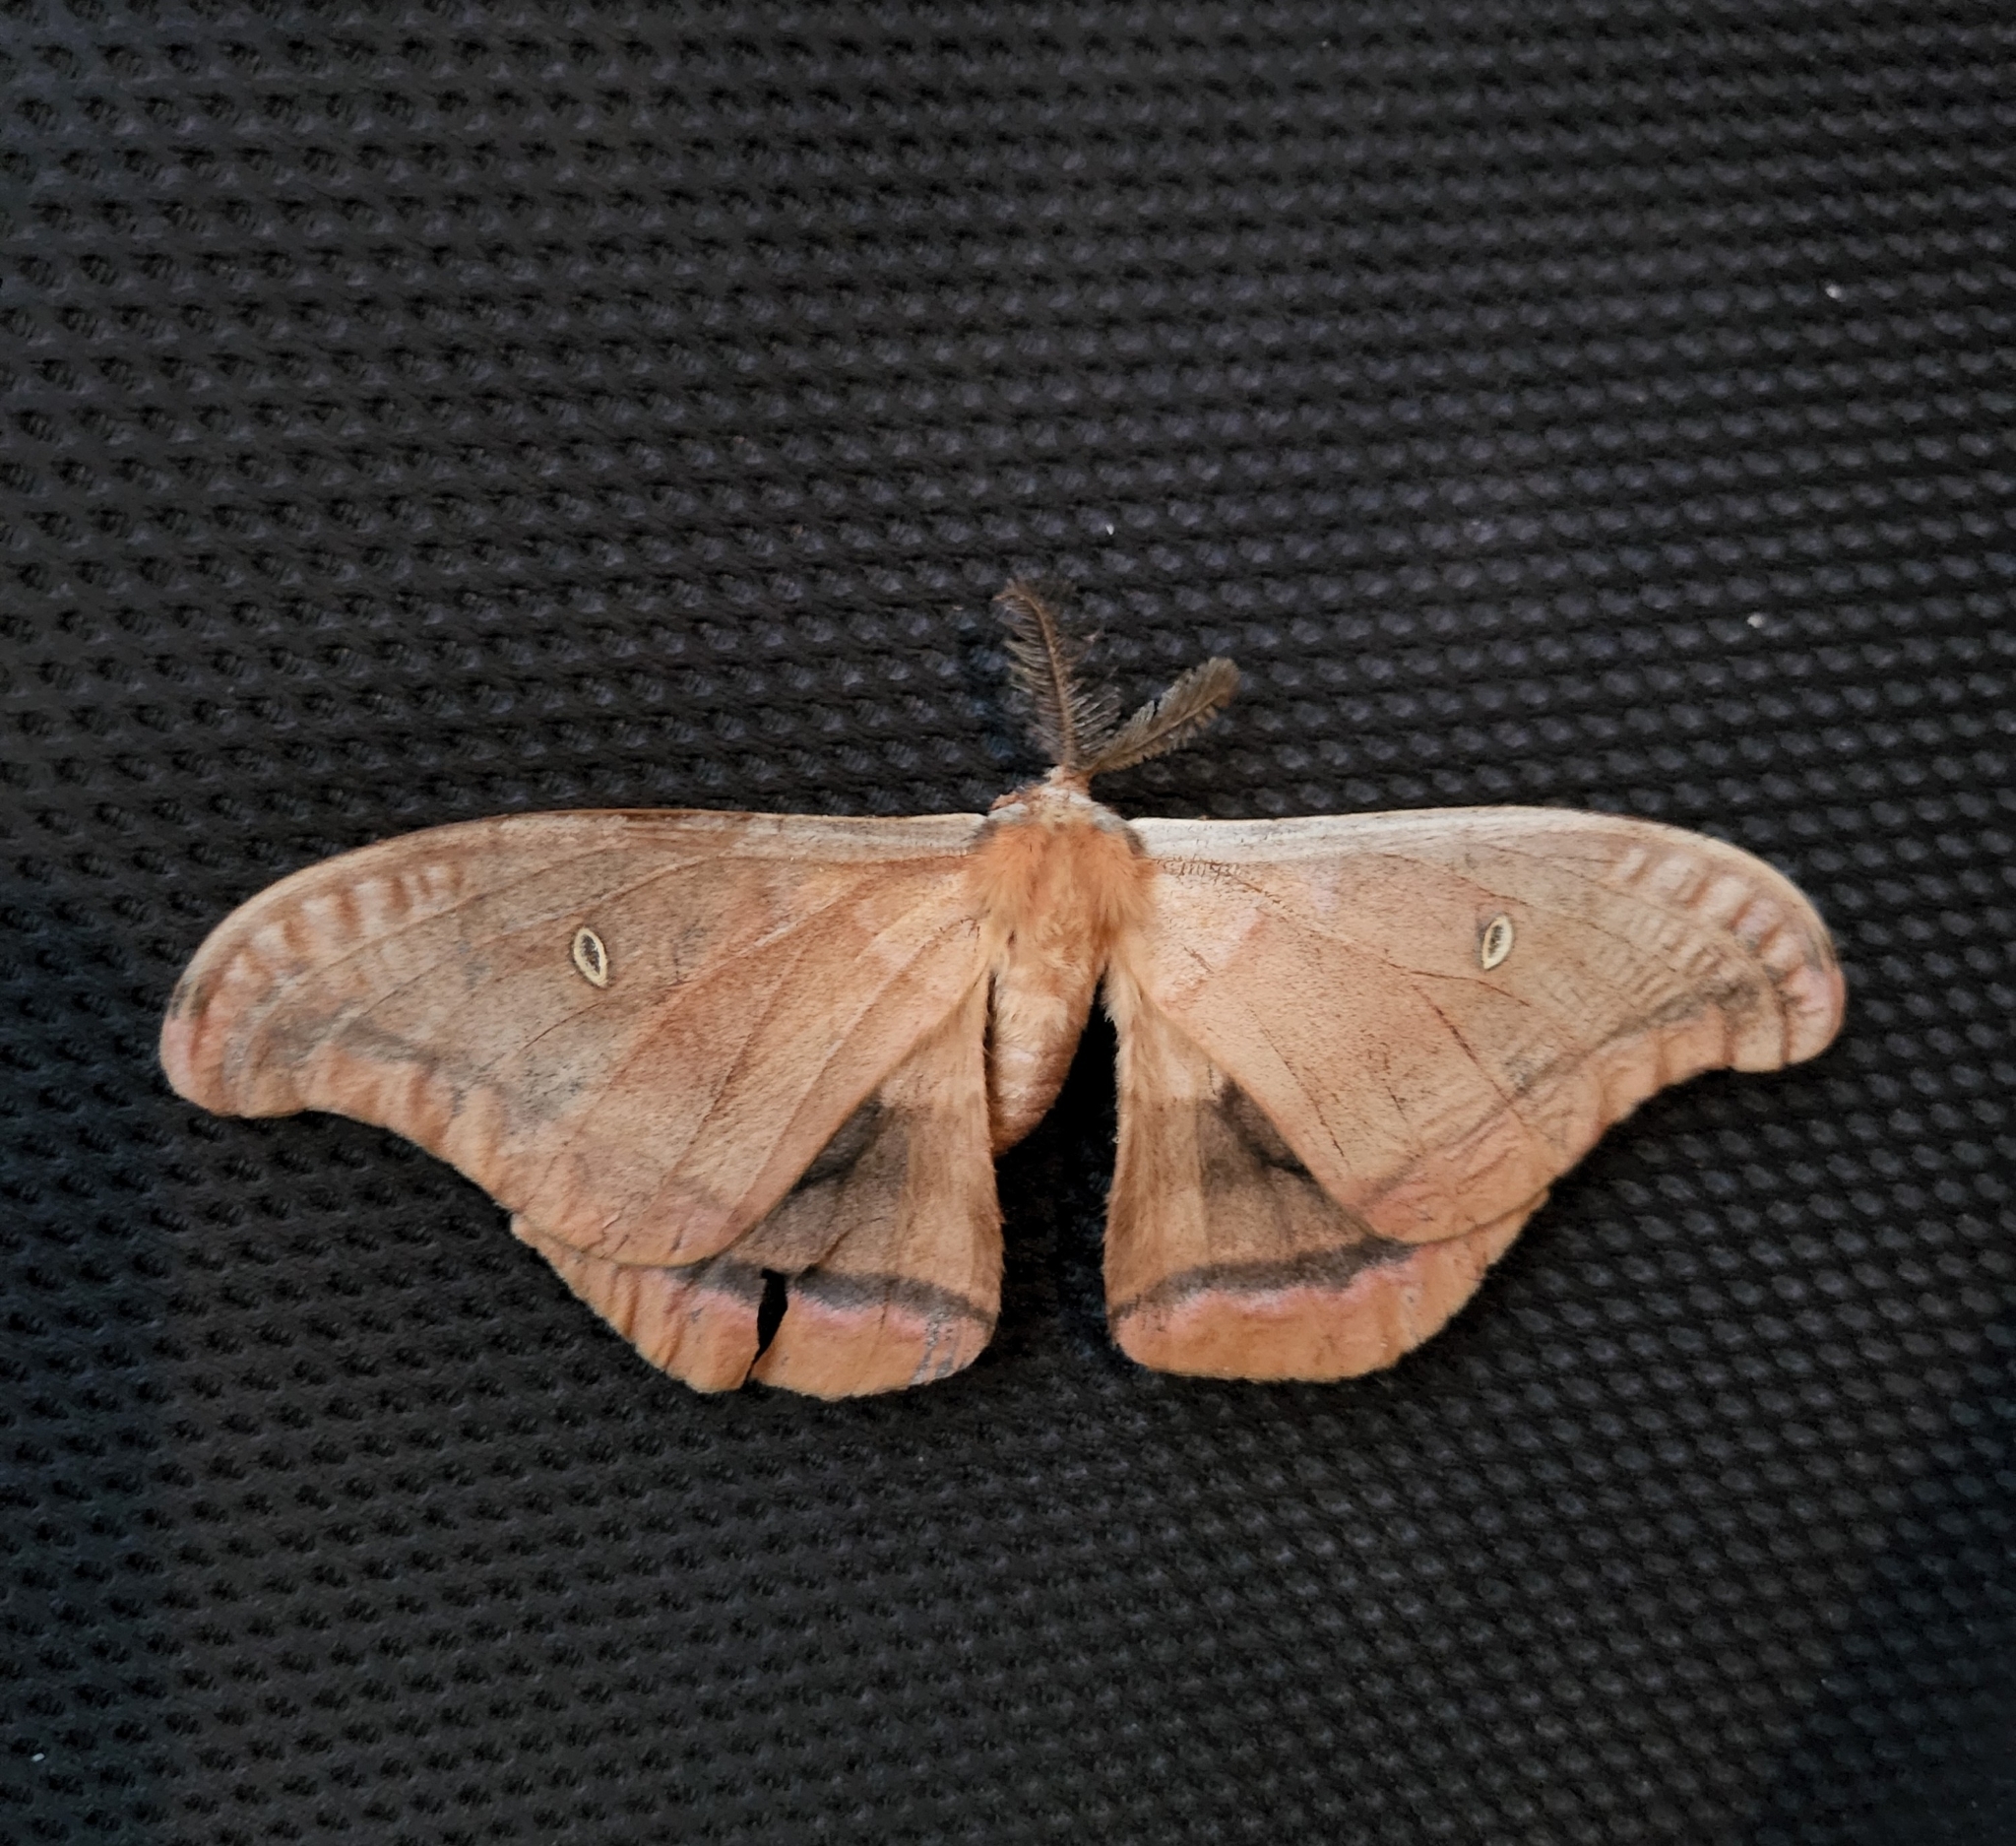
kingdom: Animalia
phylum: Arthropoda
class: Insecta
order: Lepidoptera
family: Saturniidae
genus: Antheraea
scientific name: Antheraea polyphemus
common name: Polyphemus moth
